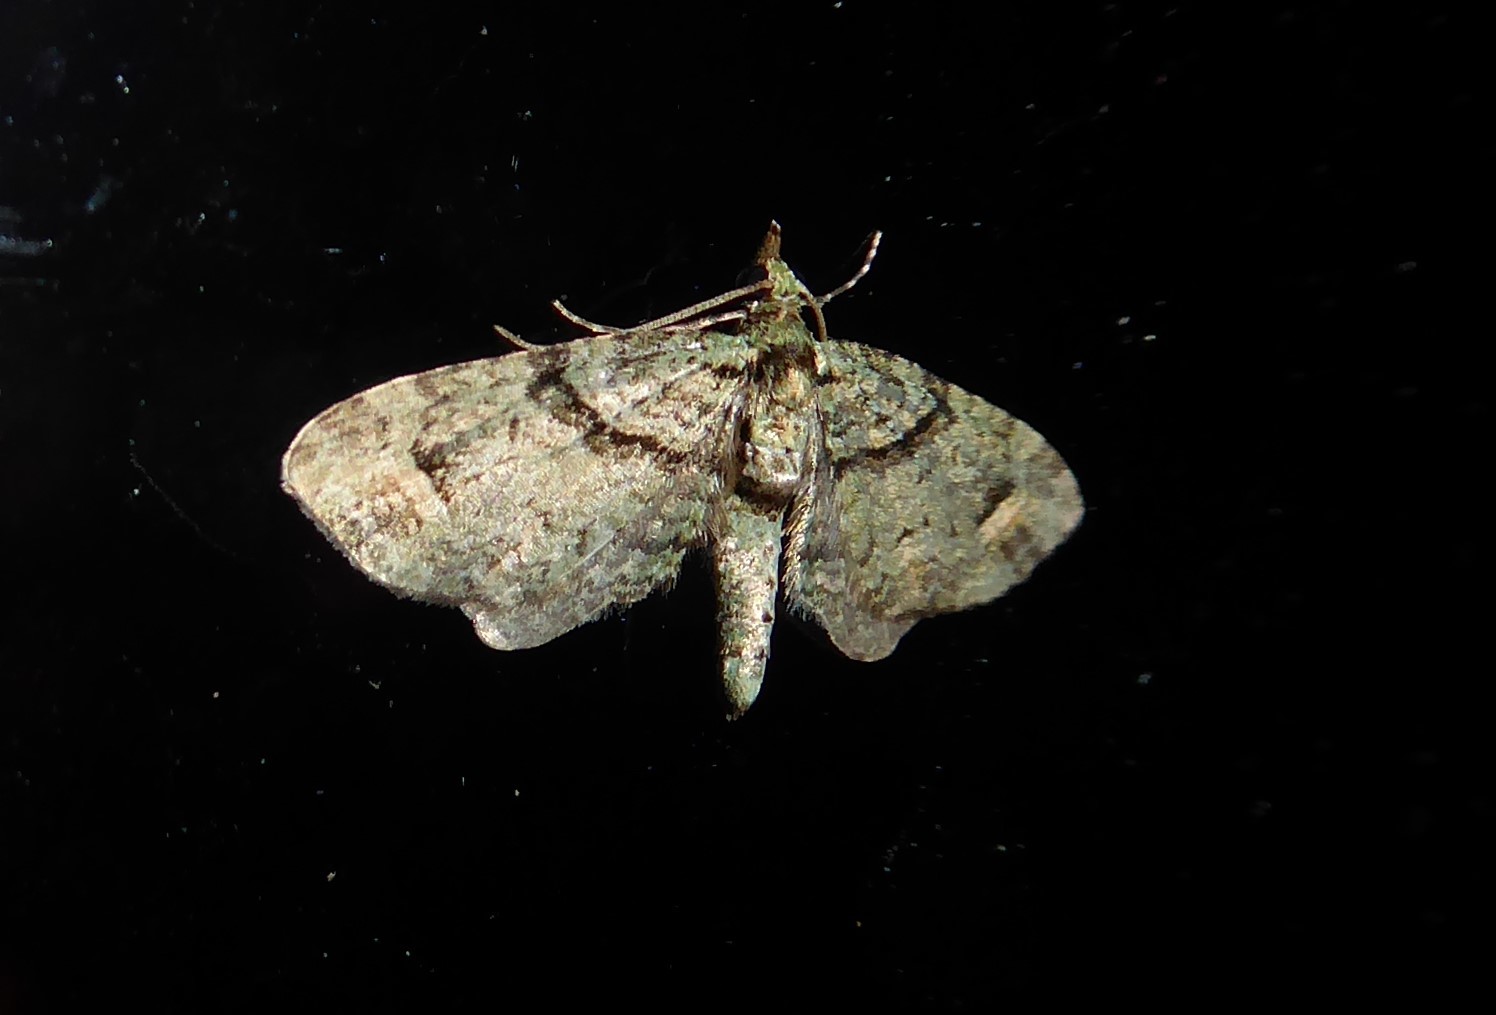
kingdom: Animalia
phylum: Arthropoda
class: Insecta
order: Lepidoptera
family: Geometridae
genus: Idaea
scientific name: Idaea mutanda
